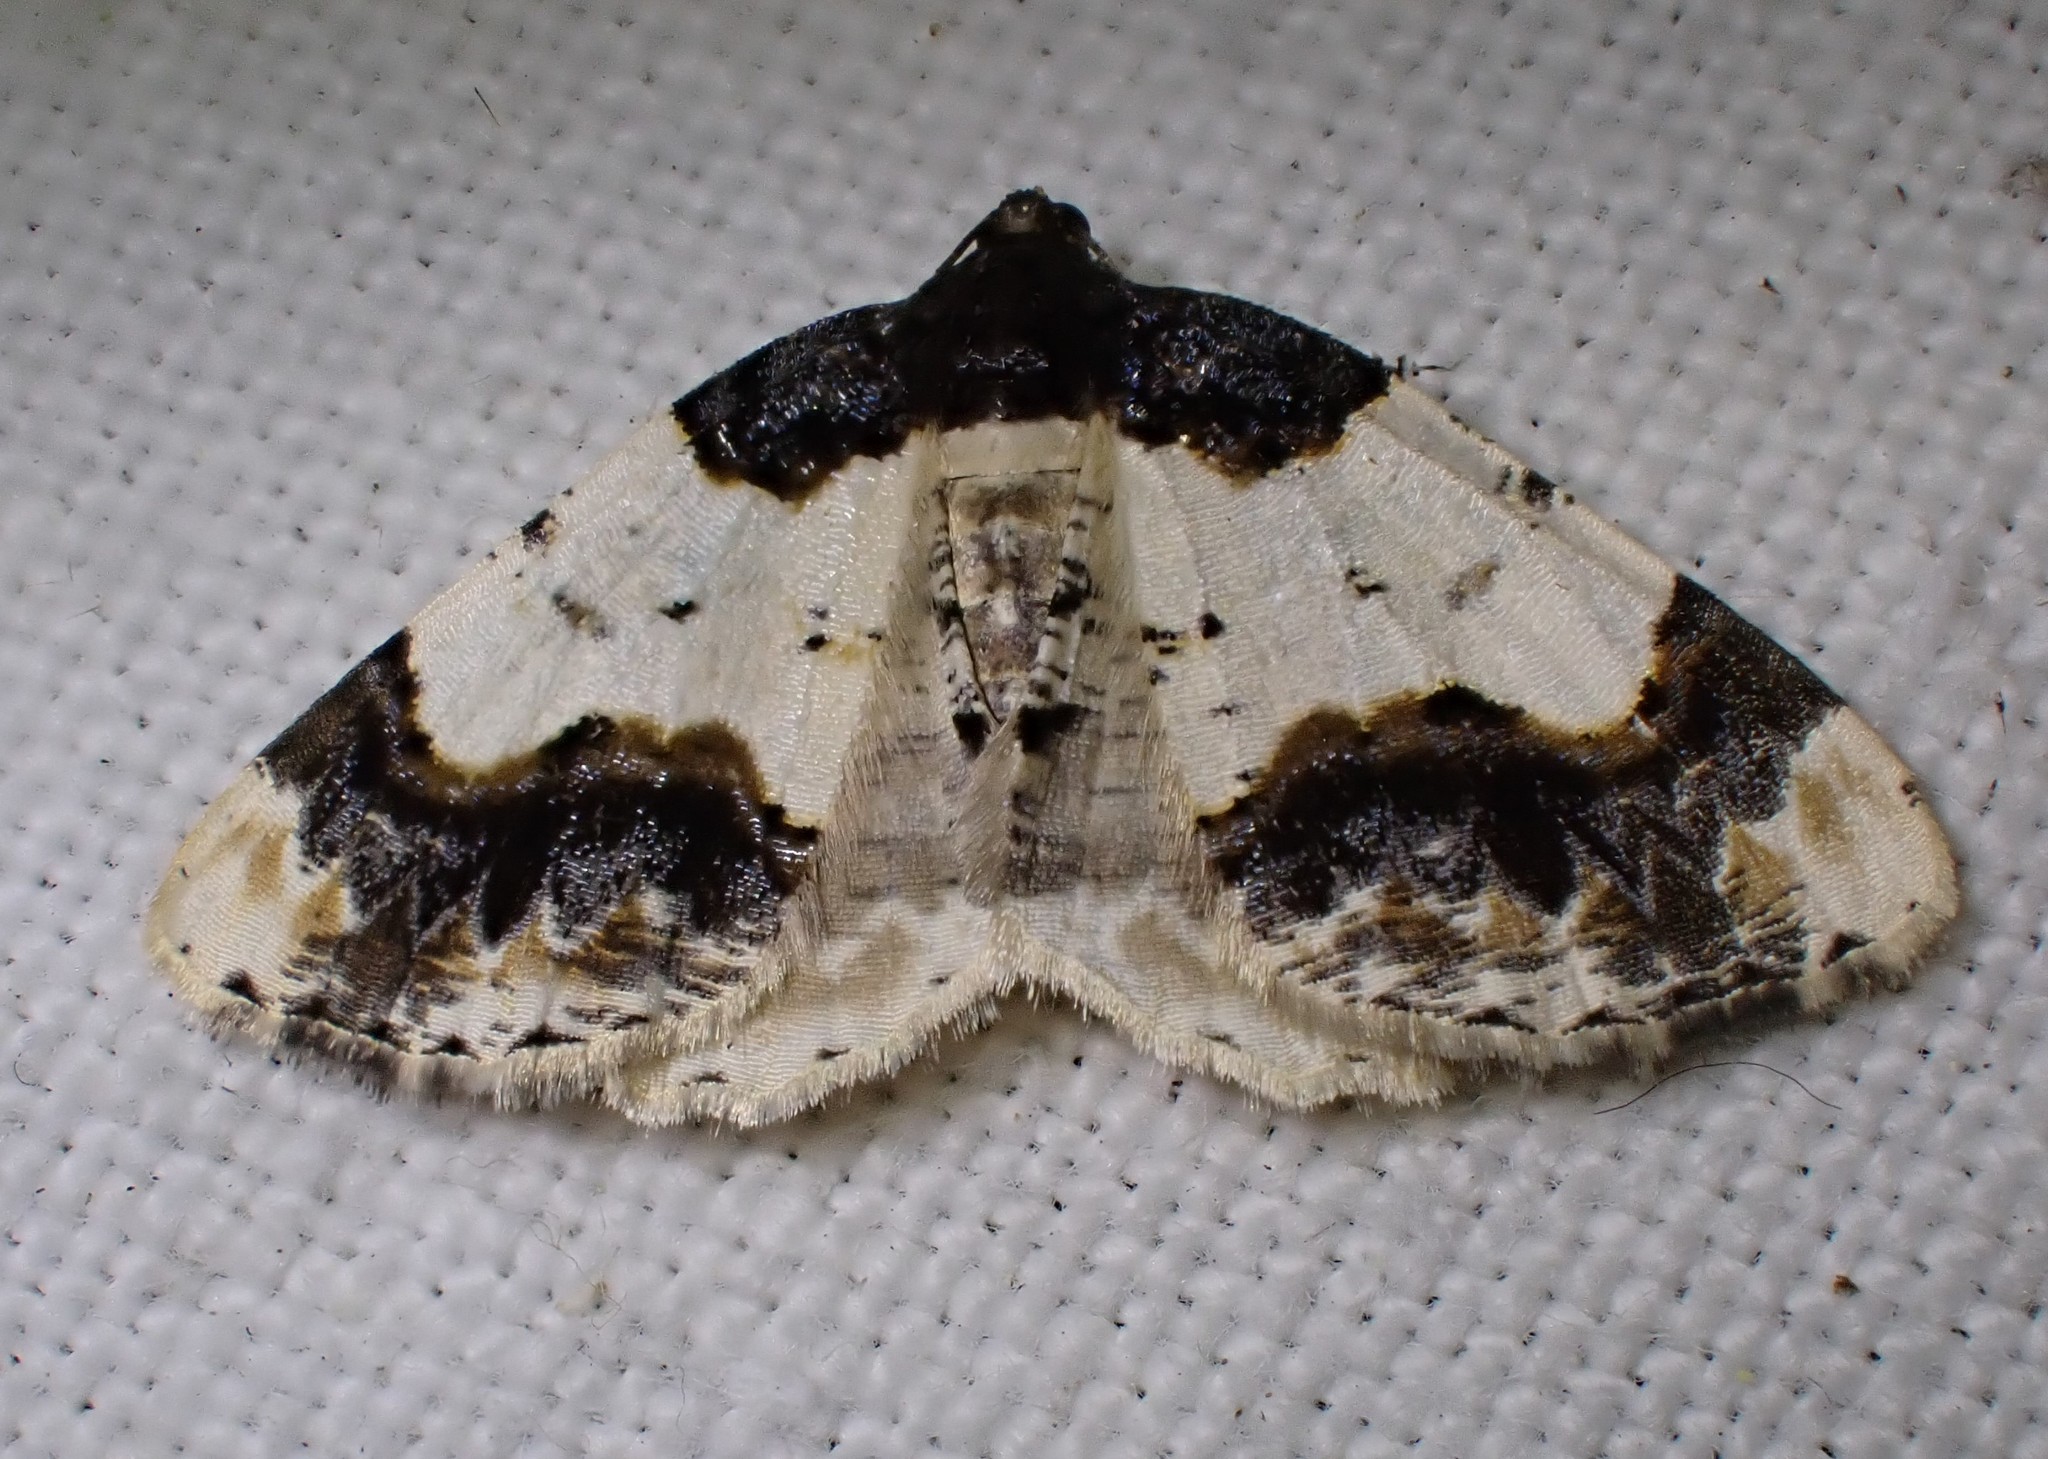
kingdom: Animalia
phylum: Arthropoda
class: Insecta
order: Lepidoptera
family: Geometridae
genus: Ligdia
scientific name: Ligdia adustata
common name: Scorched carpet
